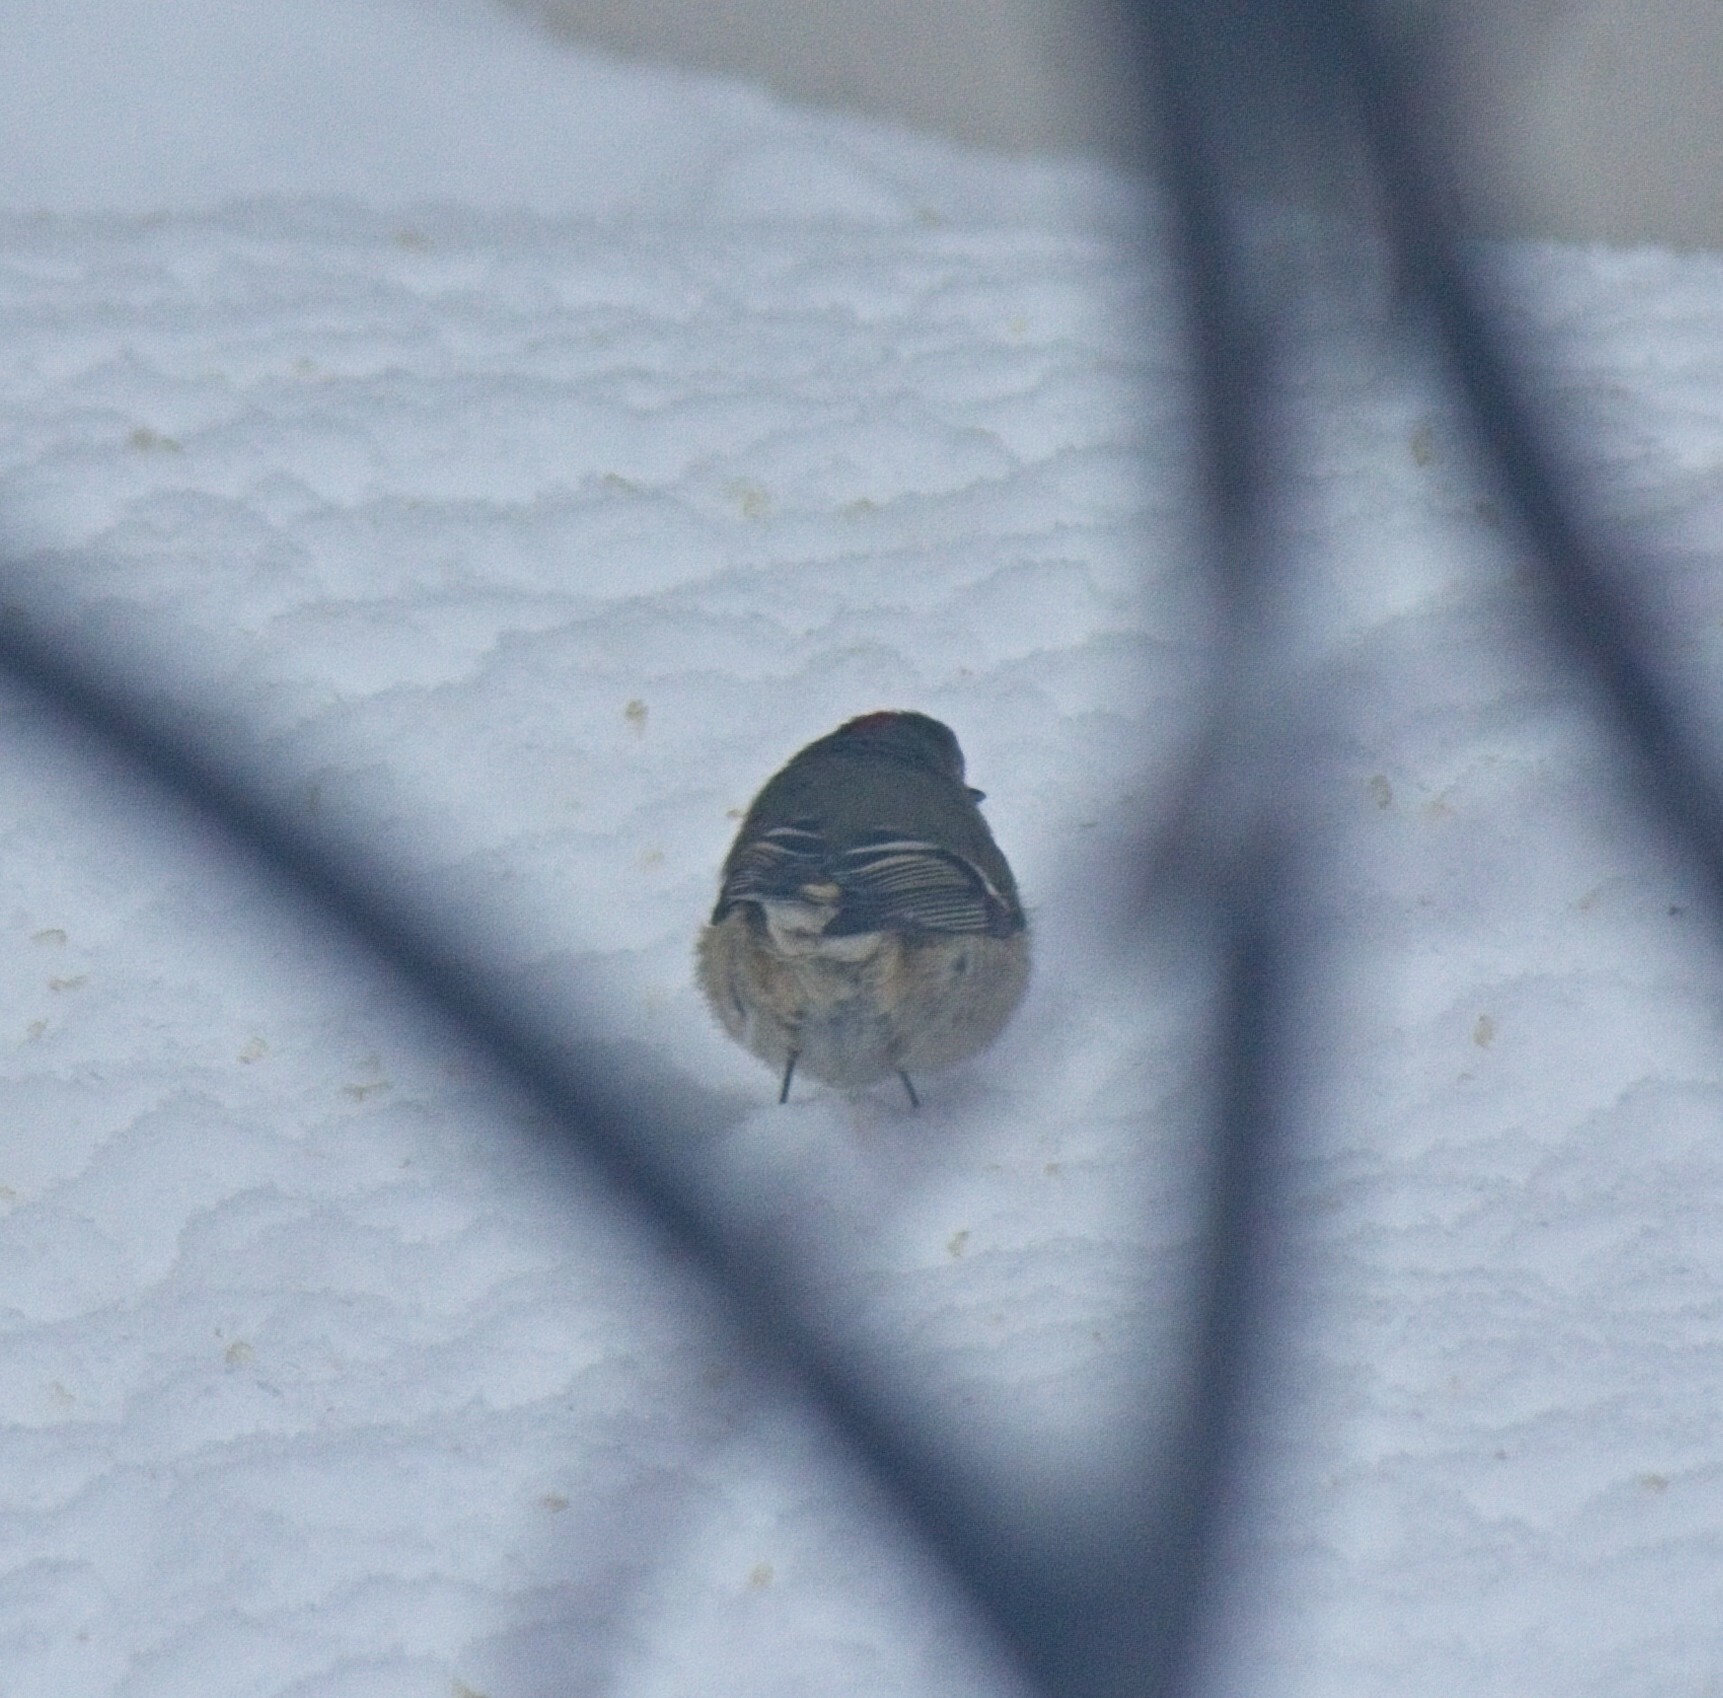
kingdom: Animalia
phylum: Chordata
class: Aves
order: Passeriformes
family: Regulidae
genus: Regulus
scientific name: Regulus calendula
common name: Ruby-crowned kinglet
